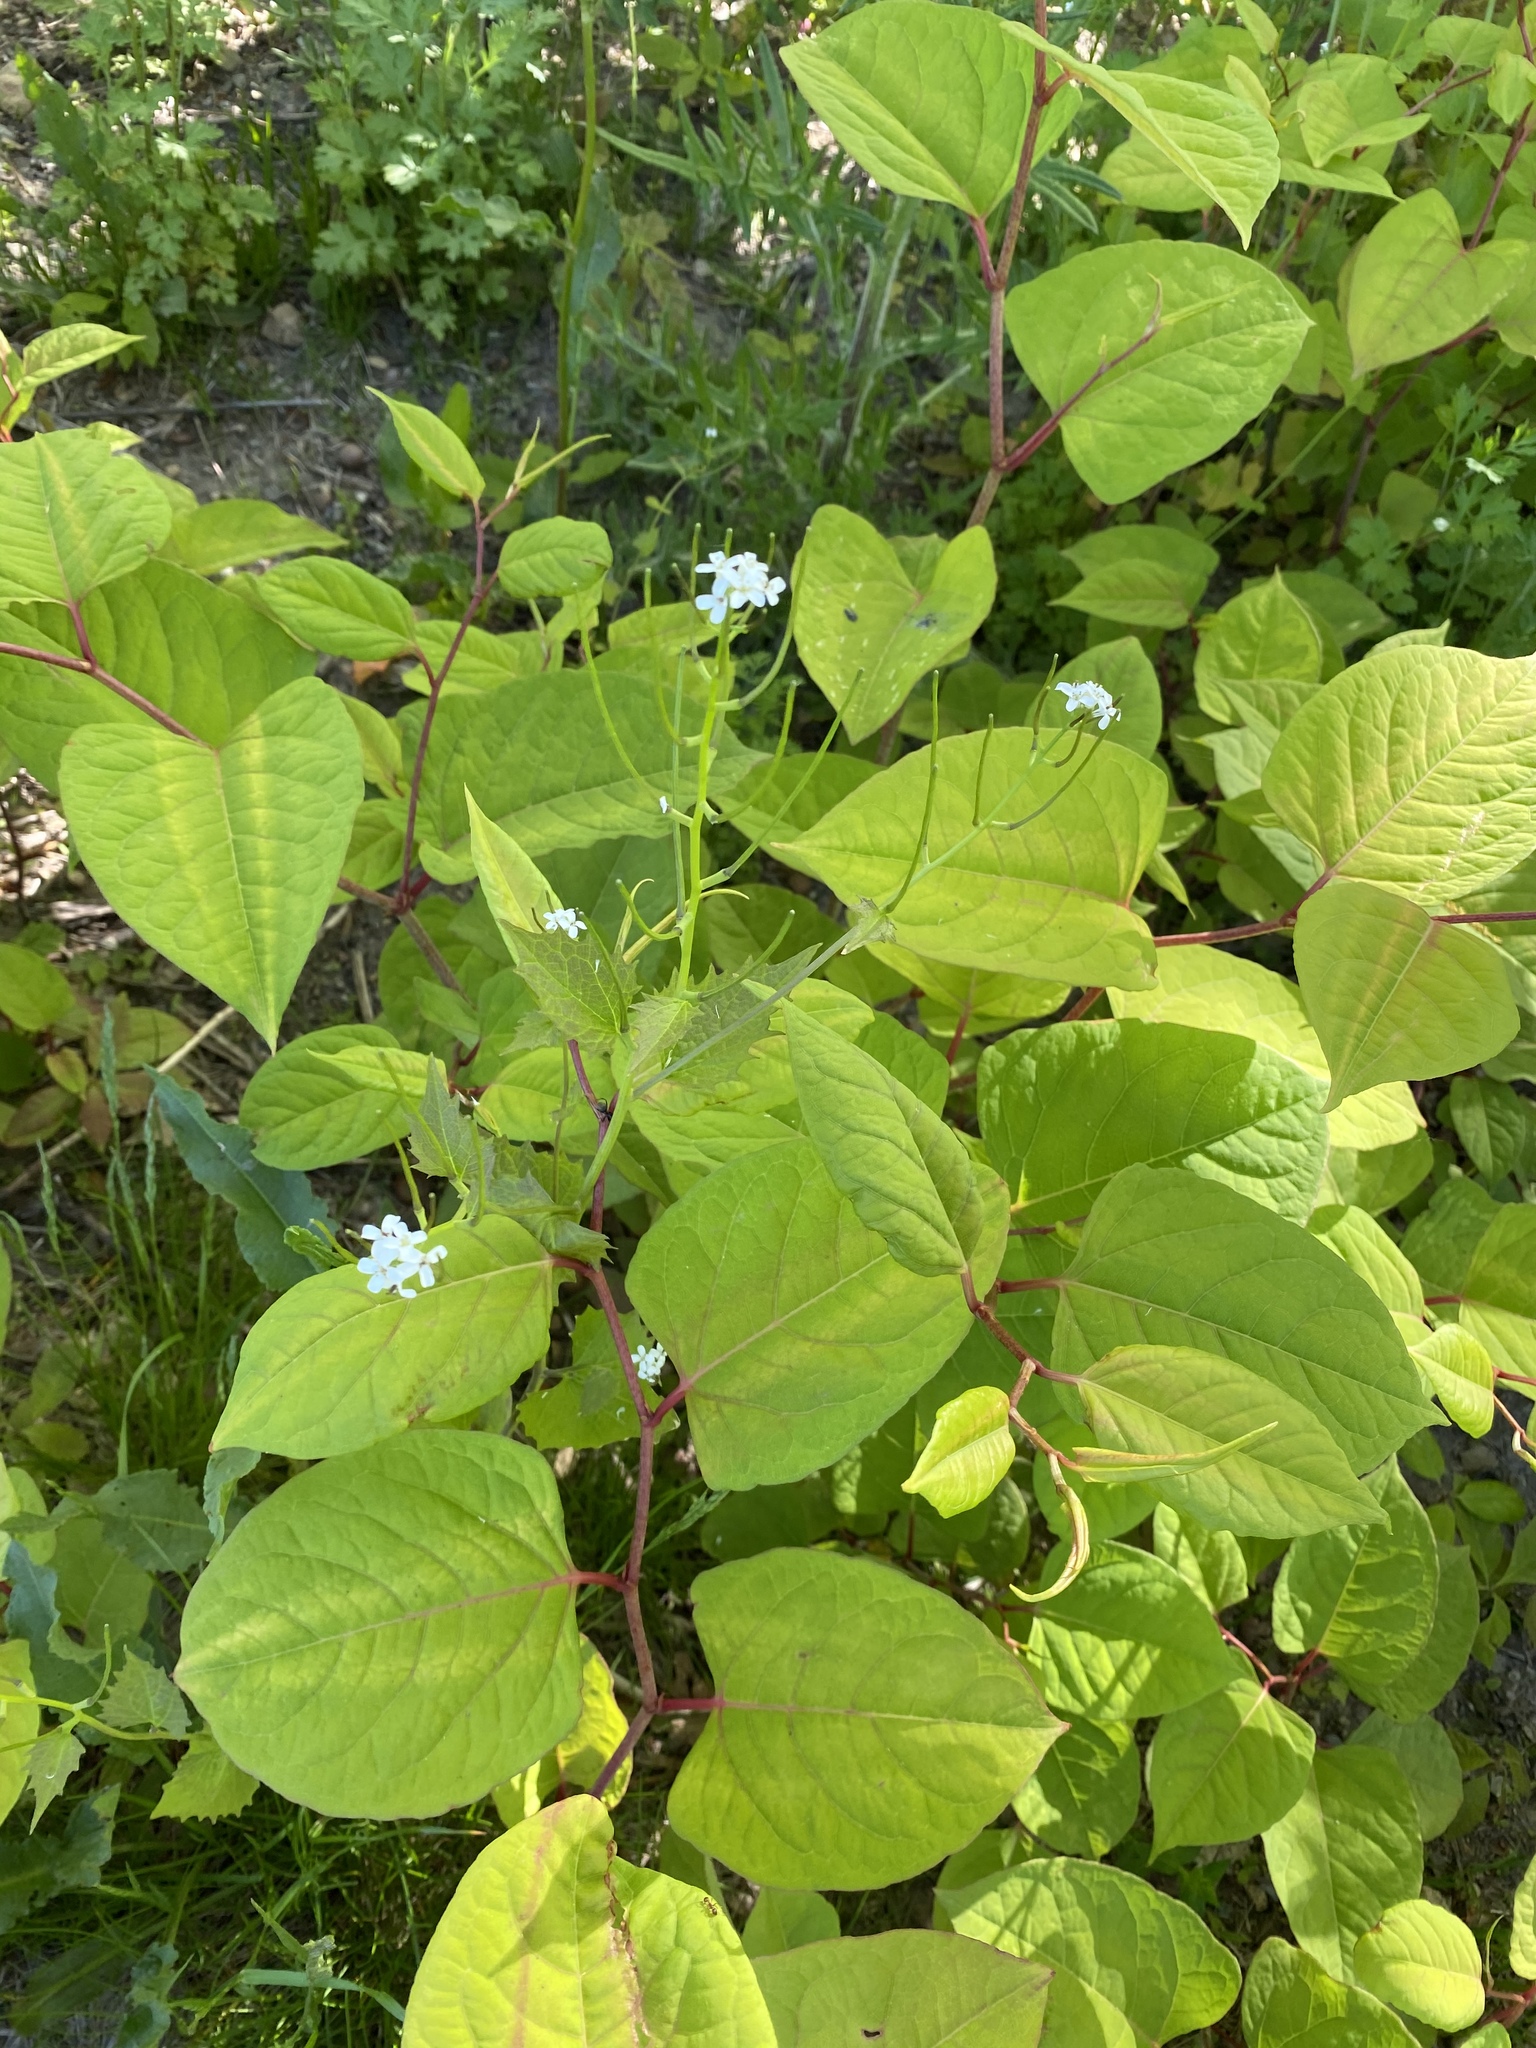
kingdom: Plantae
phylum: Tracheophyta
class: Magnoliopsida
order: Caryophyllales
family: Polygonaceae
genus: Reynoutria
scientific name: Reynoutria japonica
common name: Japanese knotweed
